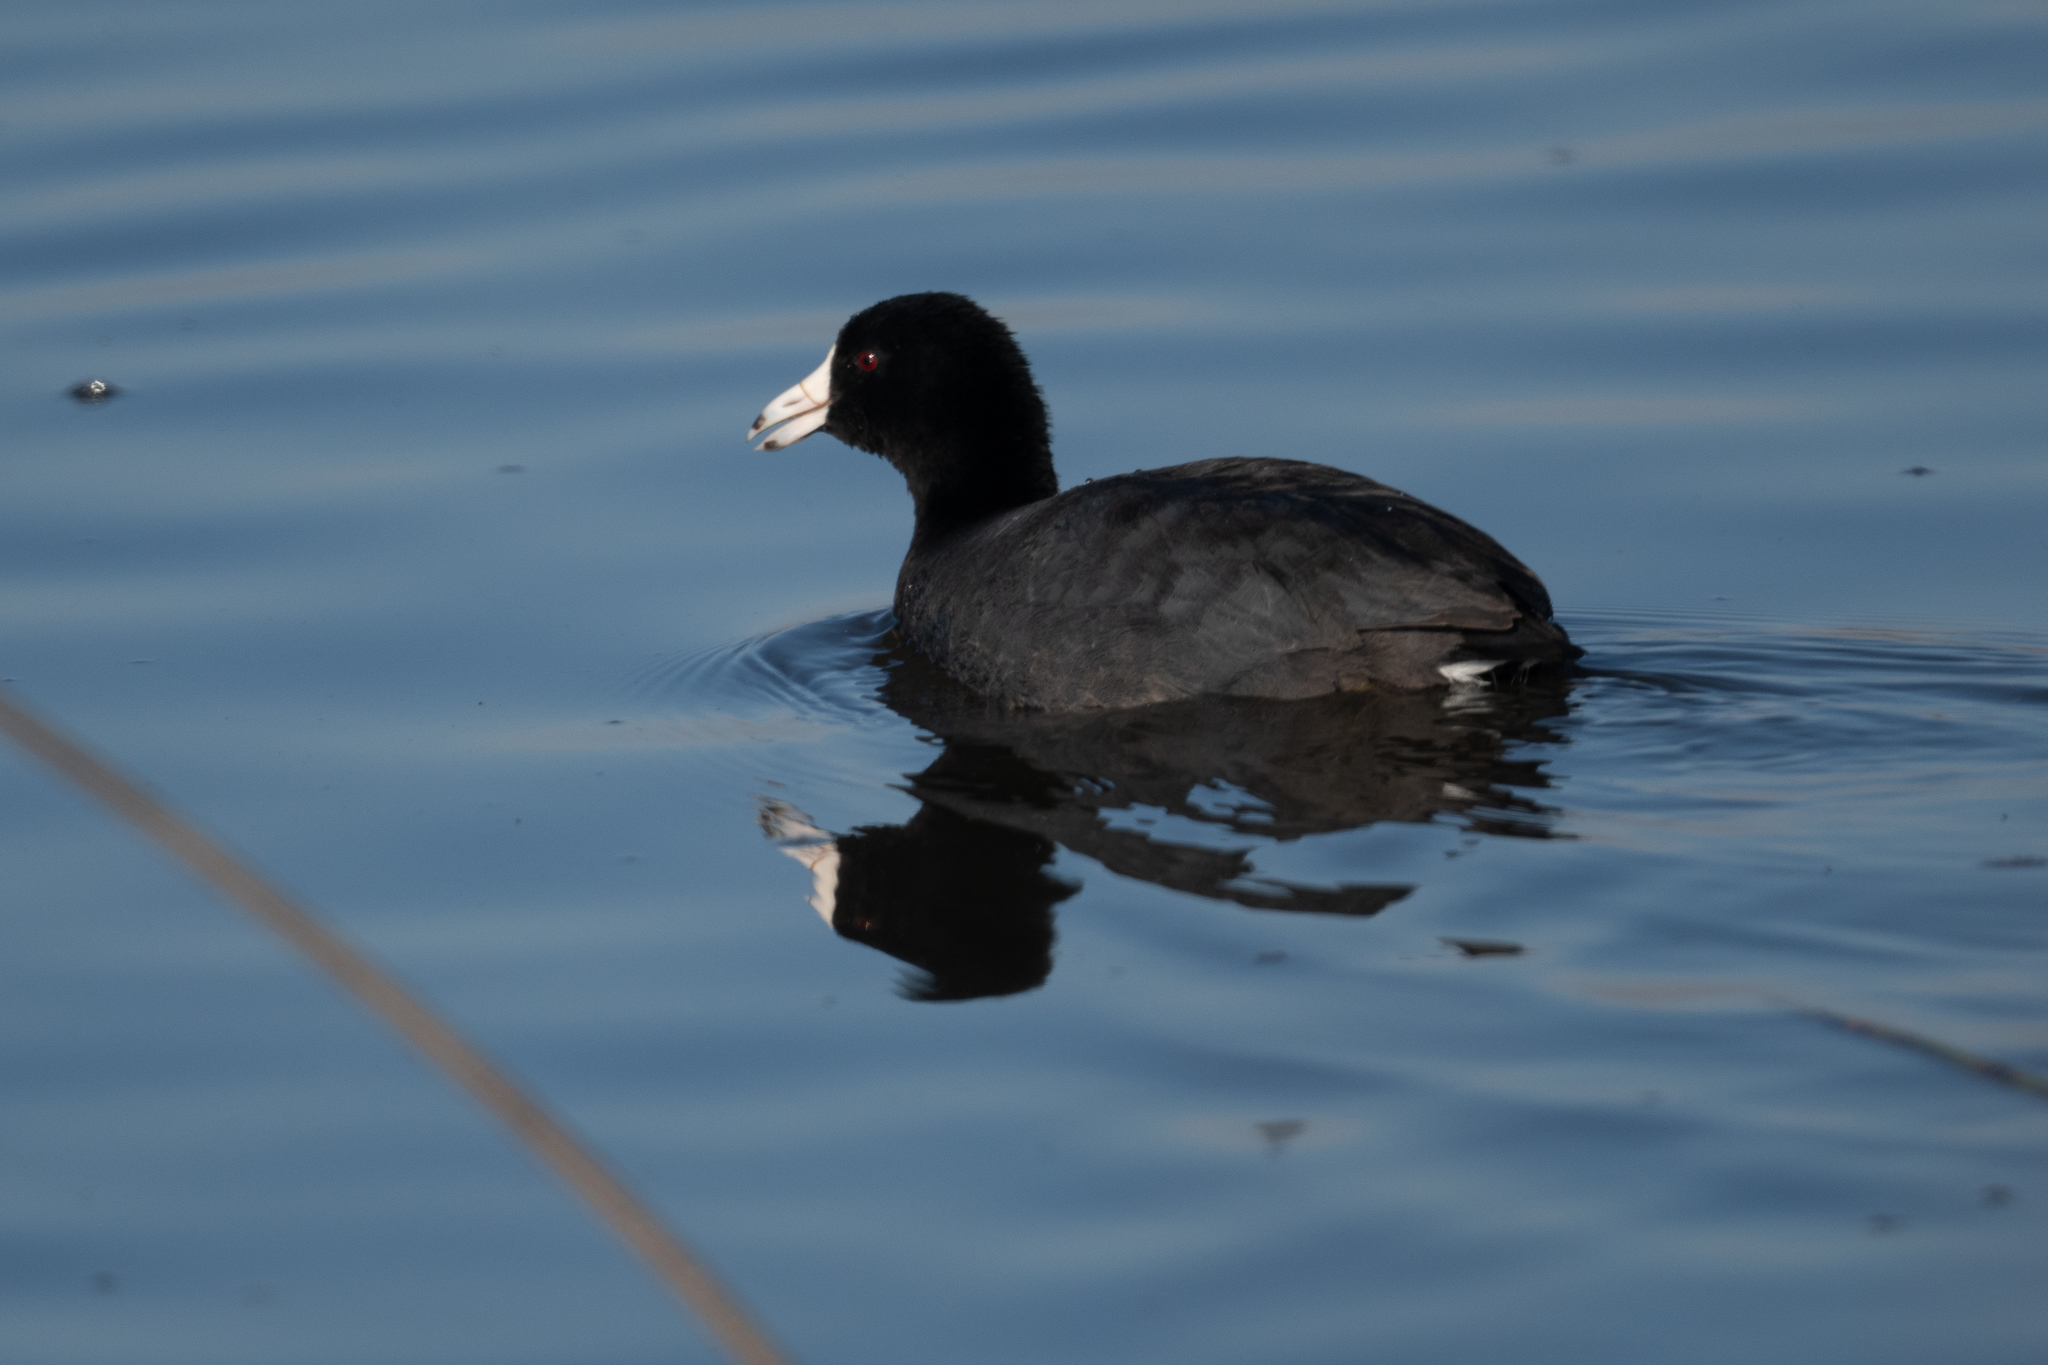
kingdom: Animalia
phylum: Chordata
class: Aves
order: Gruiformes
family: Rallidae
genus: Fulica
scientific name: Fulica americana
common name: American coot
